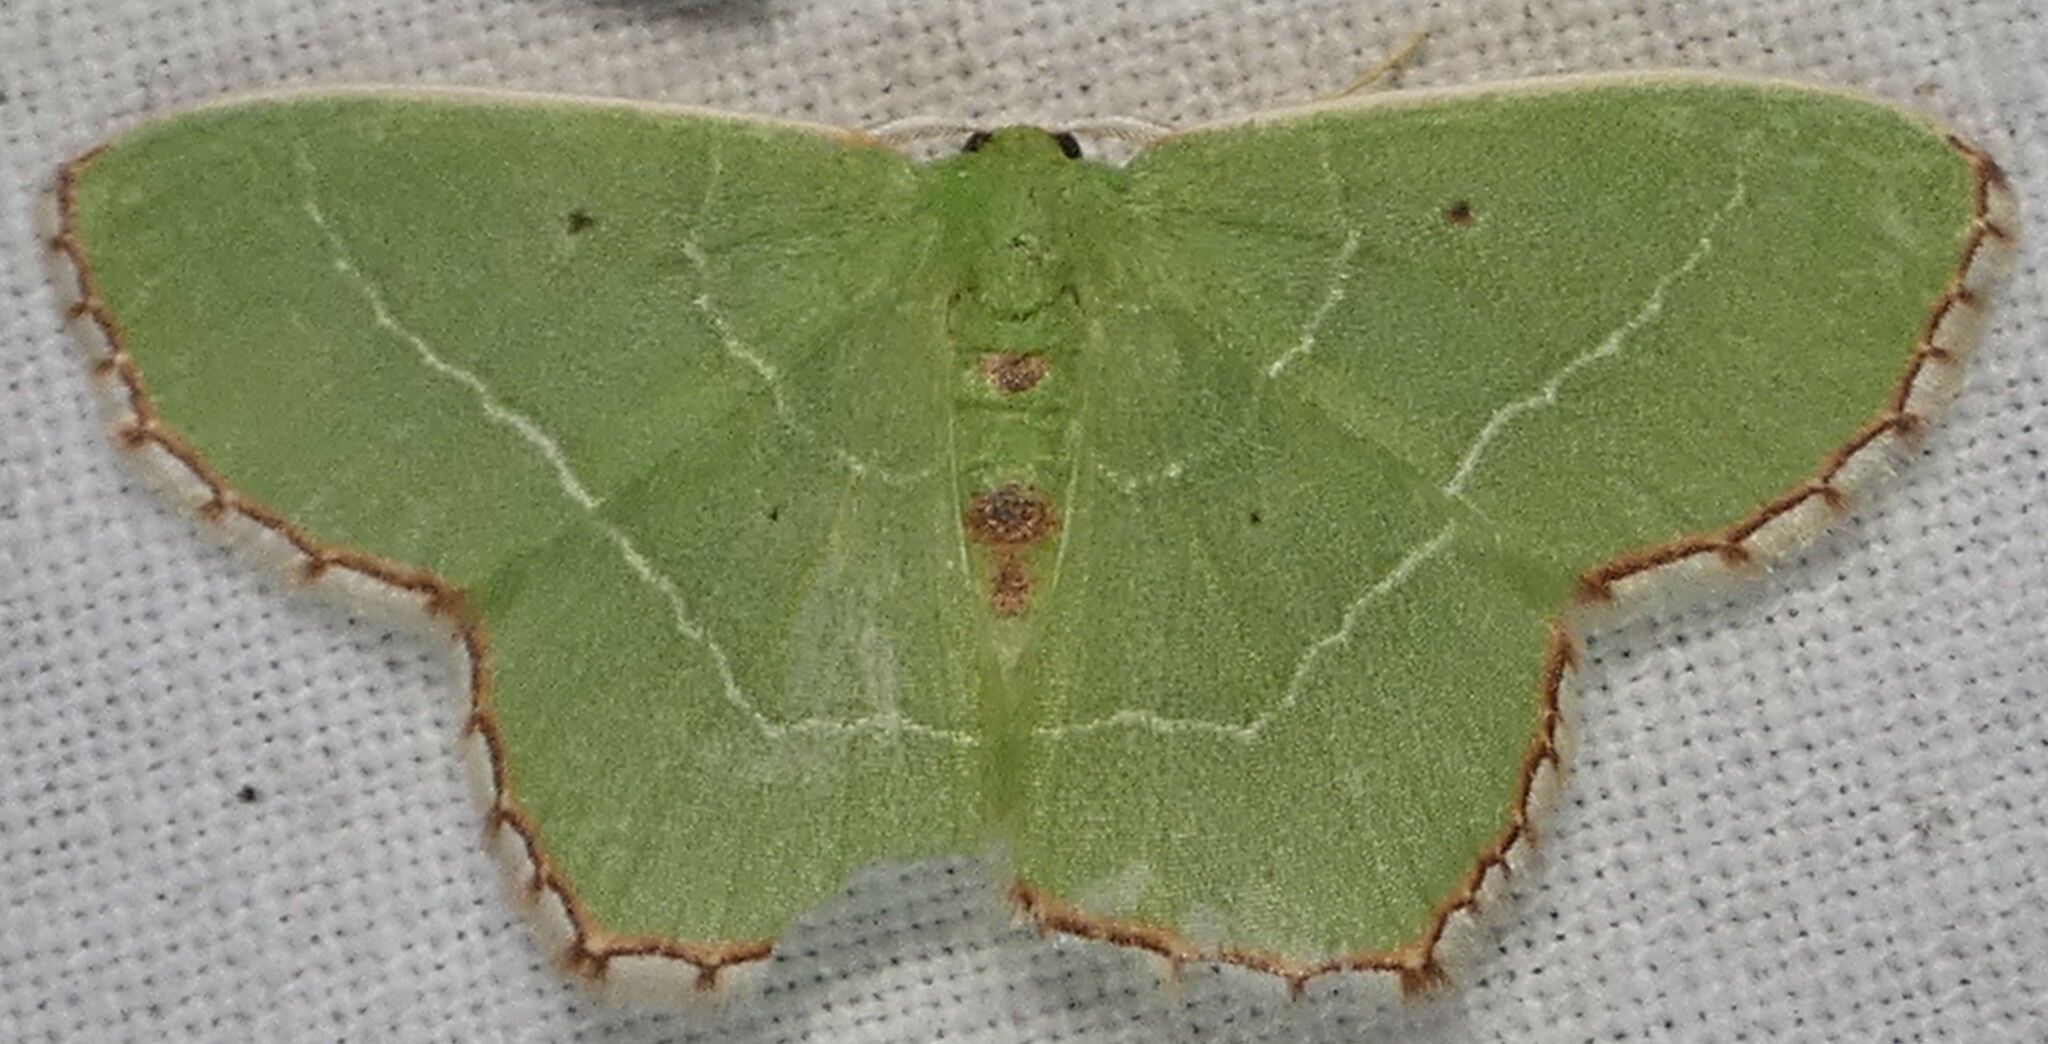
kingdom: Animalia
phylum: Arthropoda
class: Insecta
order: Lepidoptera
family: Geometridae
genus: Nemoria
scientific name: Nemoria saturiba
